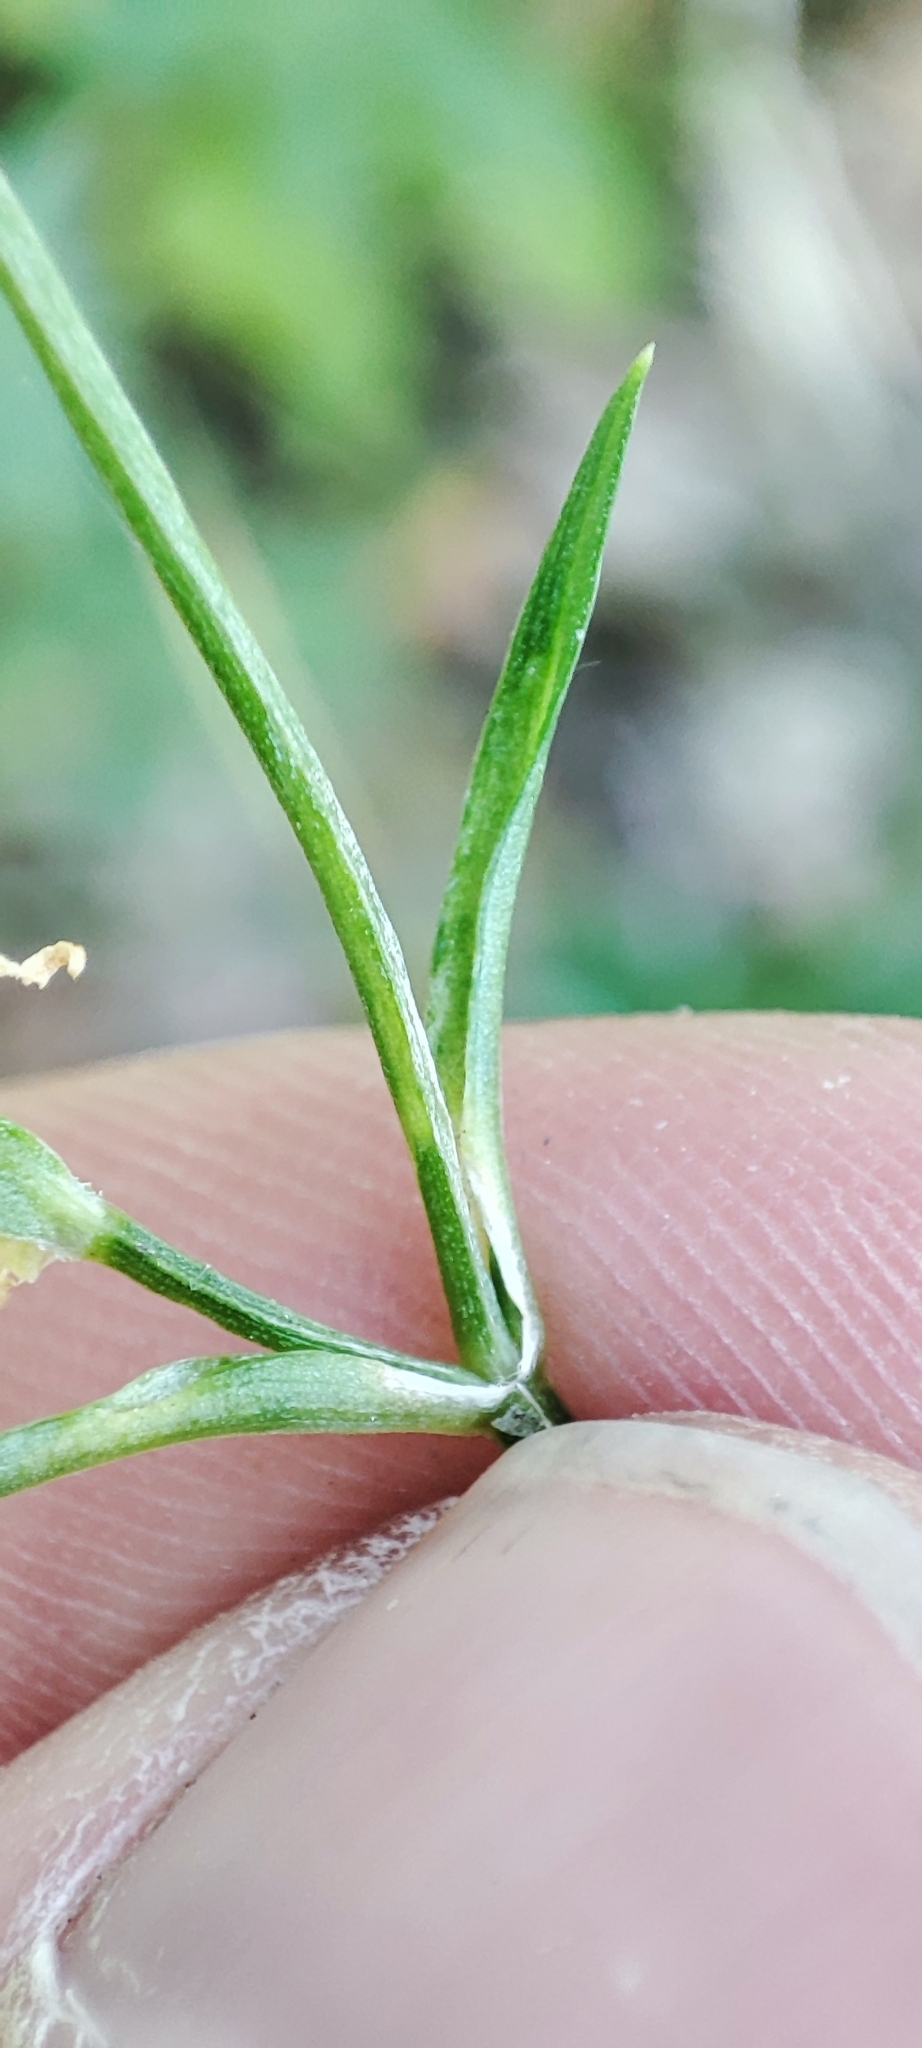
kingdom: Plantae
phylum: Tracheophyta
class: Magnoliopsida
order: Caryophyllales
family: Caryophyllaceae
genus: Stellaria
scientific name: Stellaria graminea
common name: Grass-like starwort
